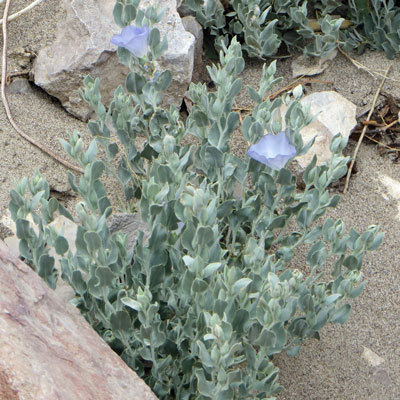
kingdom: Plantae
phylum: Tracheophyta
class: Magnoliopsida
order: Solanales
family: Convolvulaceae
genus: Bonamia
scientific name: Bonamia ovalifolia
